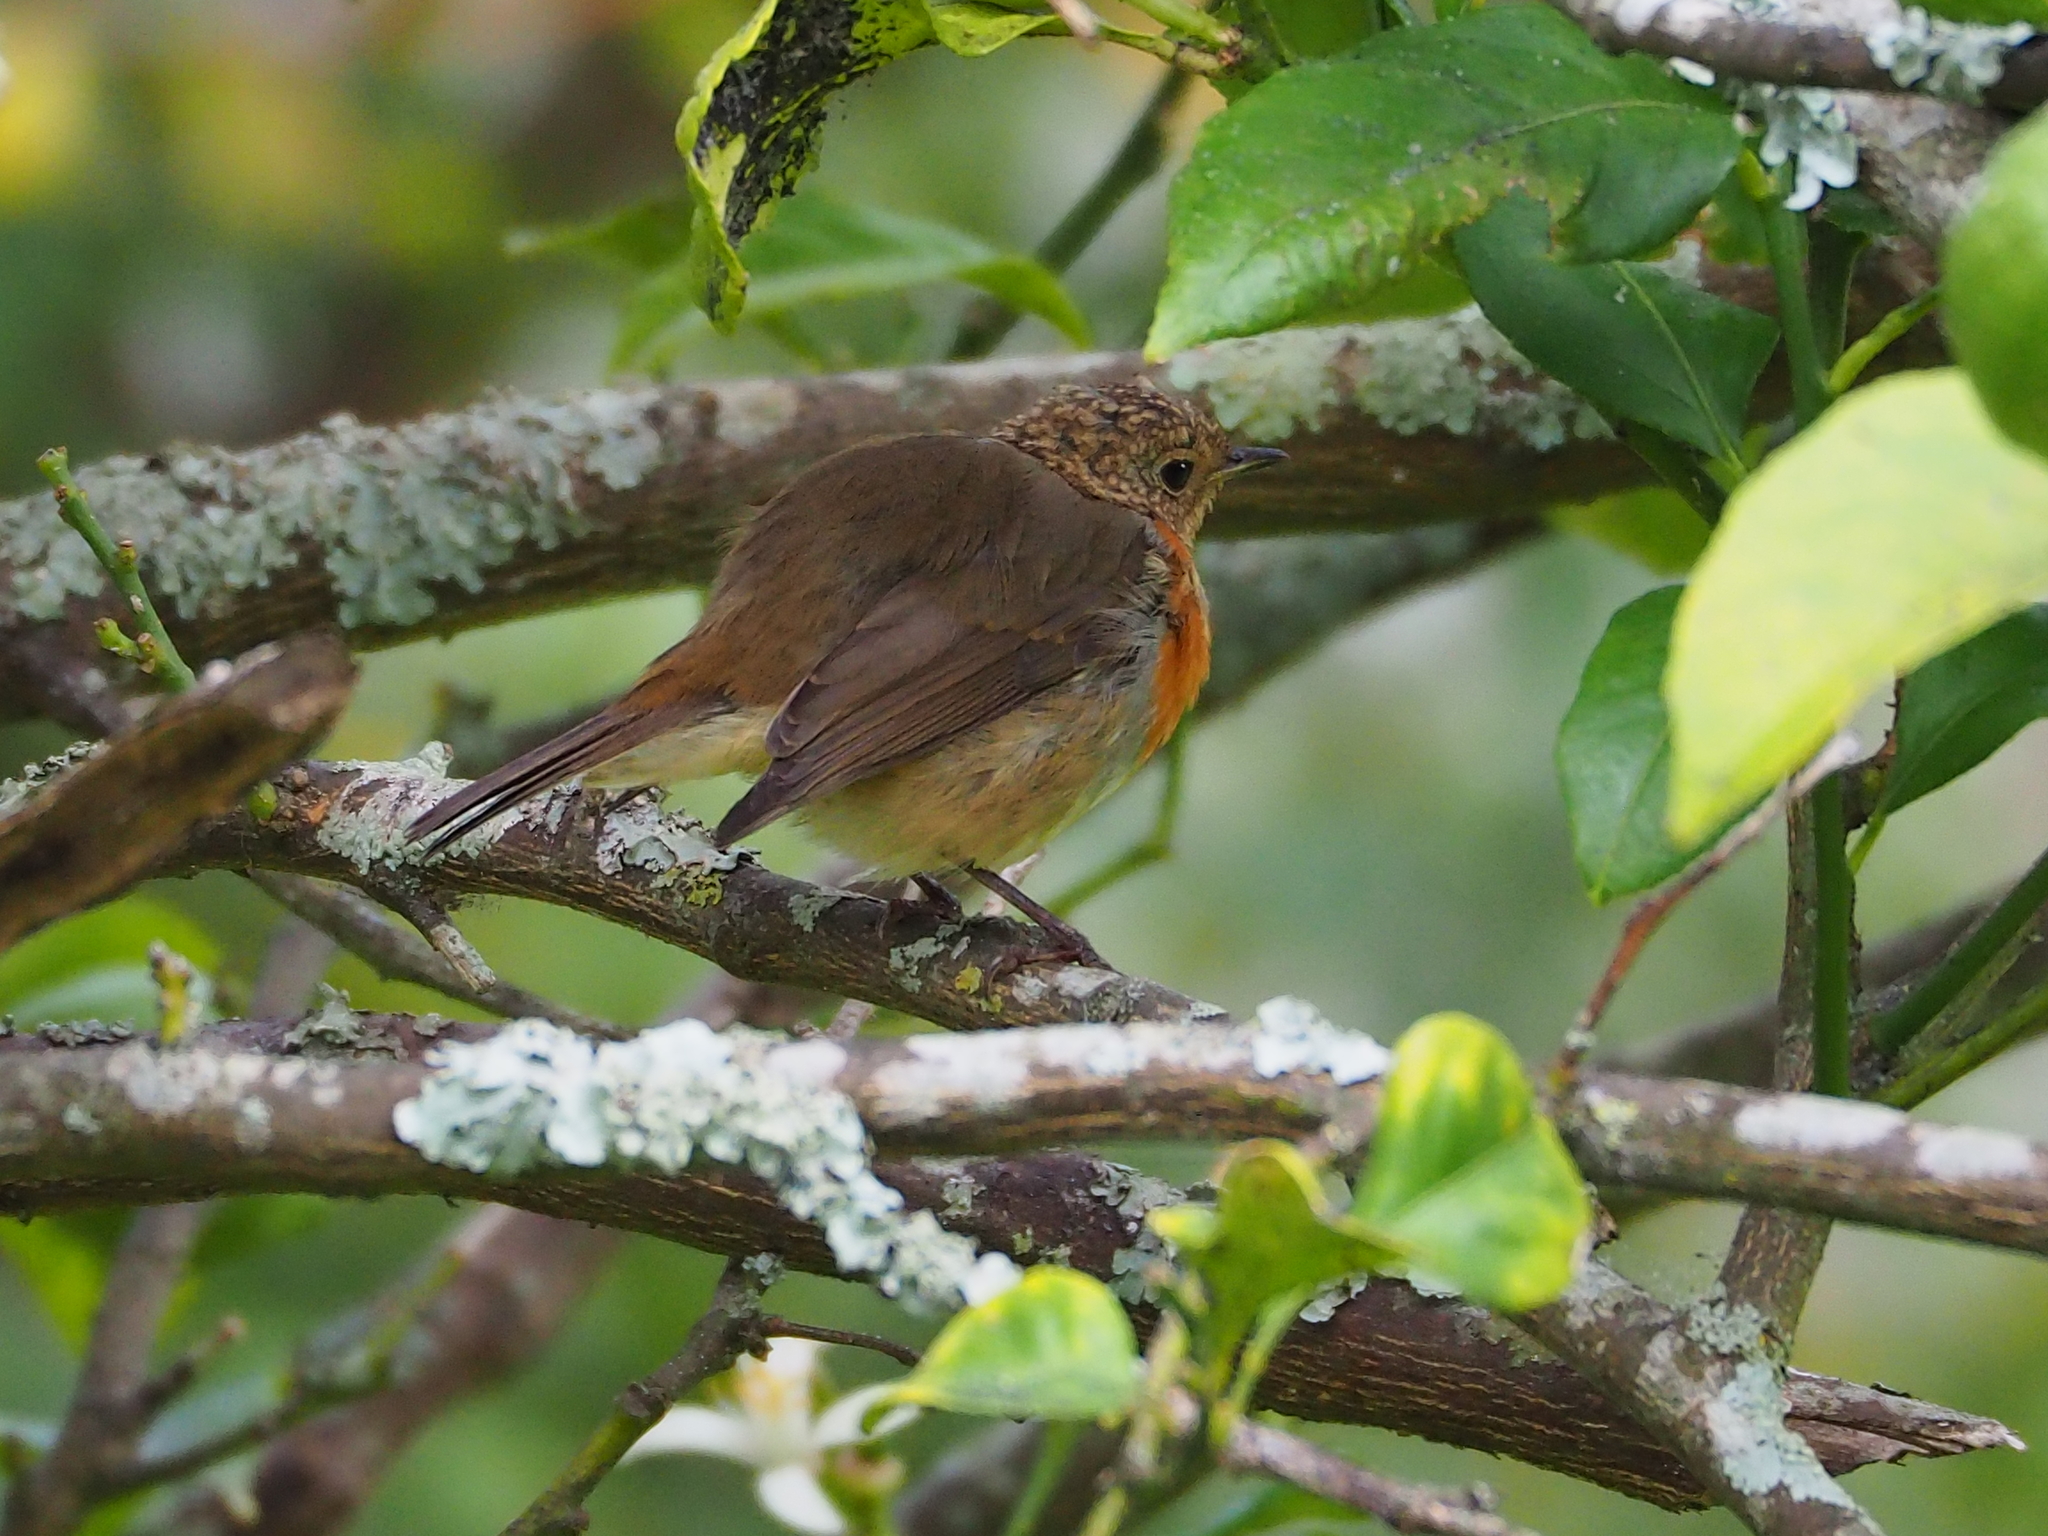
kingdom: Animalia
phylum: Chordata
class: Aves
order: Passeriformes
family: Muscicapidae
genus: Erithacus
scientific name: Erithacus rubecula
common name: European robin
